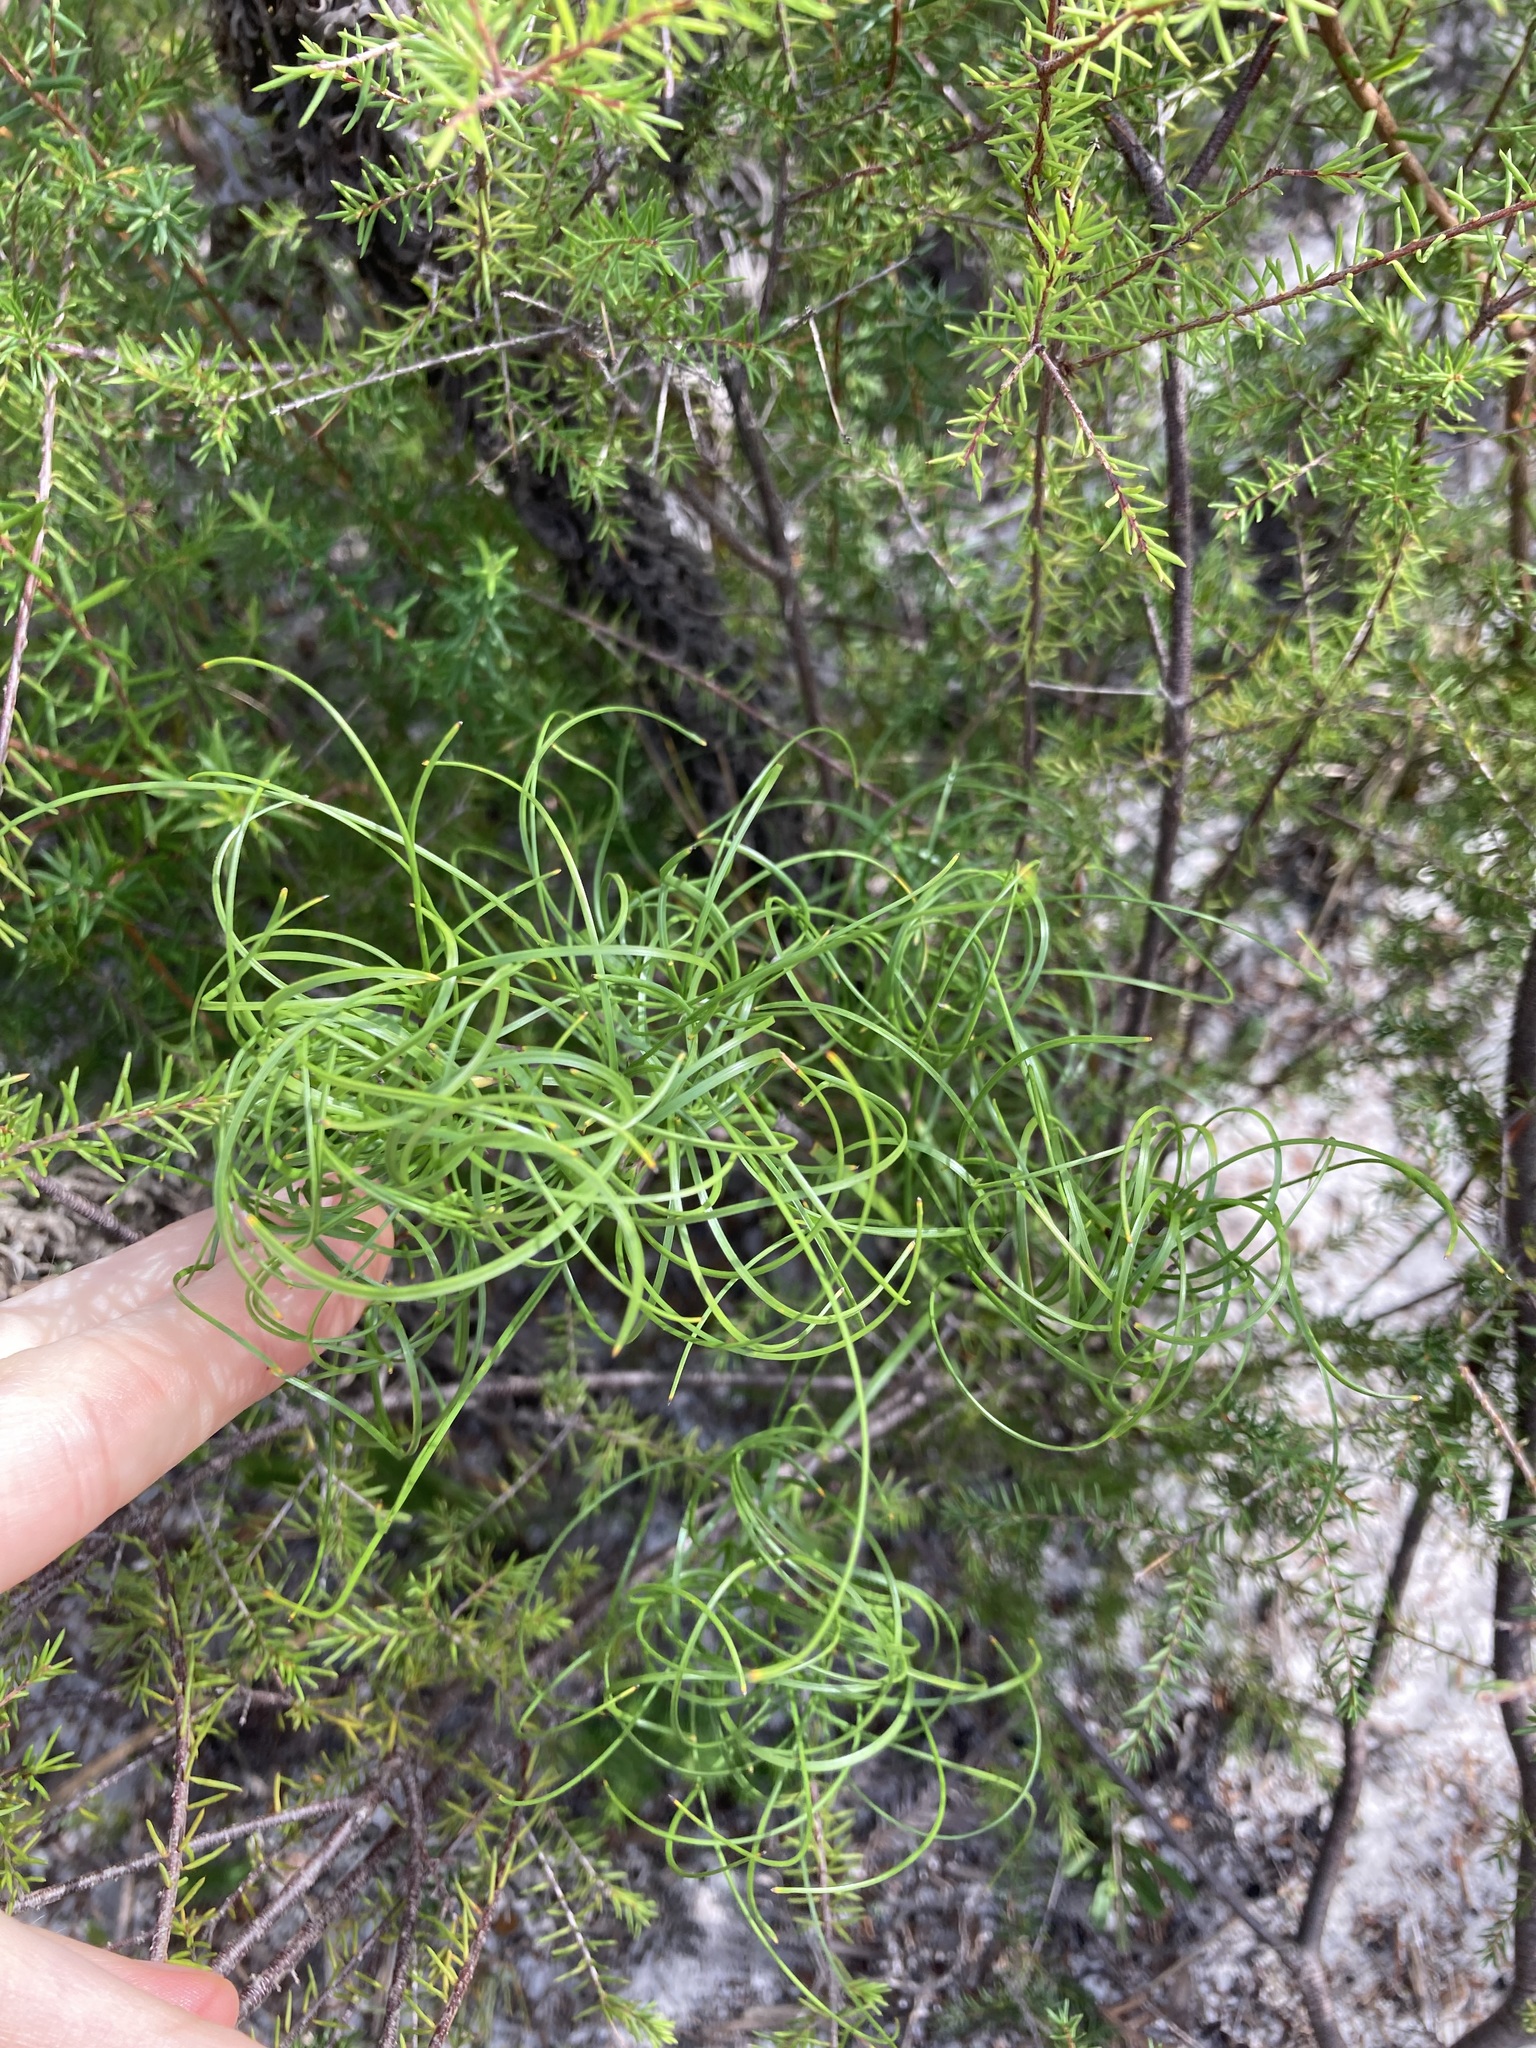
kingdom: Plantae
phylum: Tracheophyta
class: Liliopsida
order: Poales
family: Cyperaceae
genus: Caustis
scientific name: Caustis flexuosa
